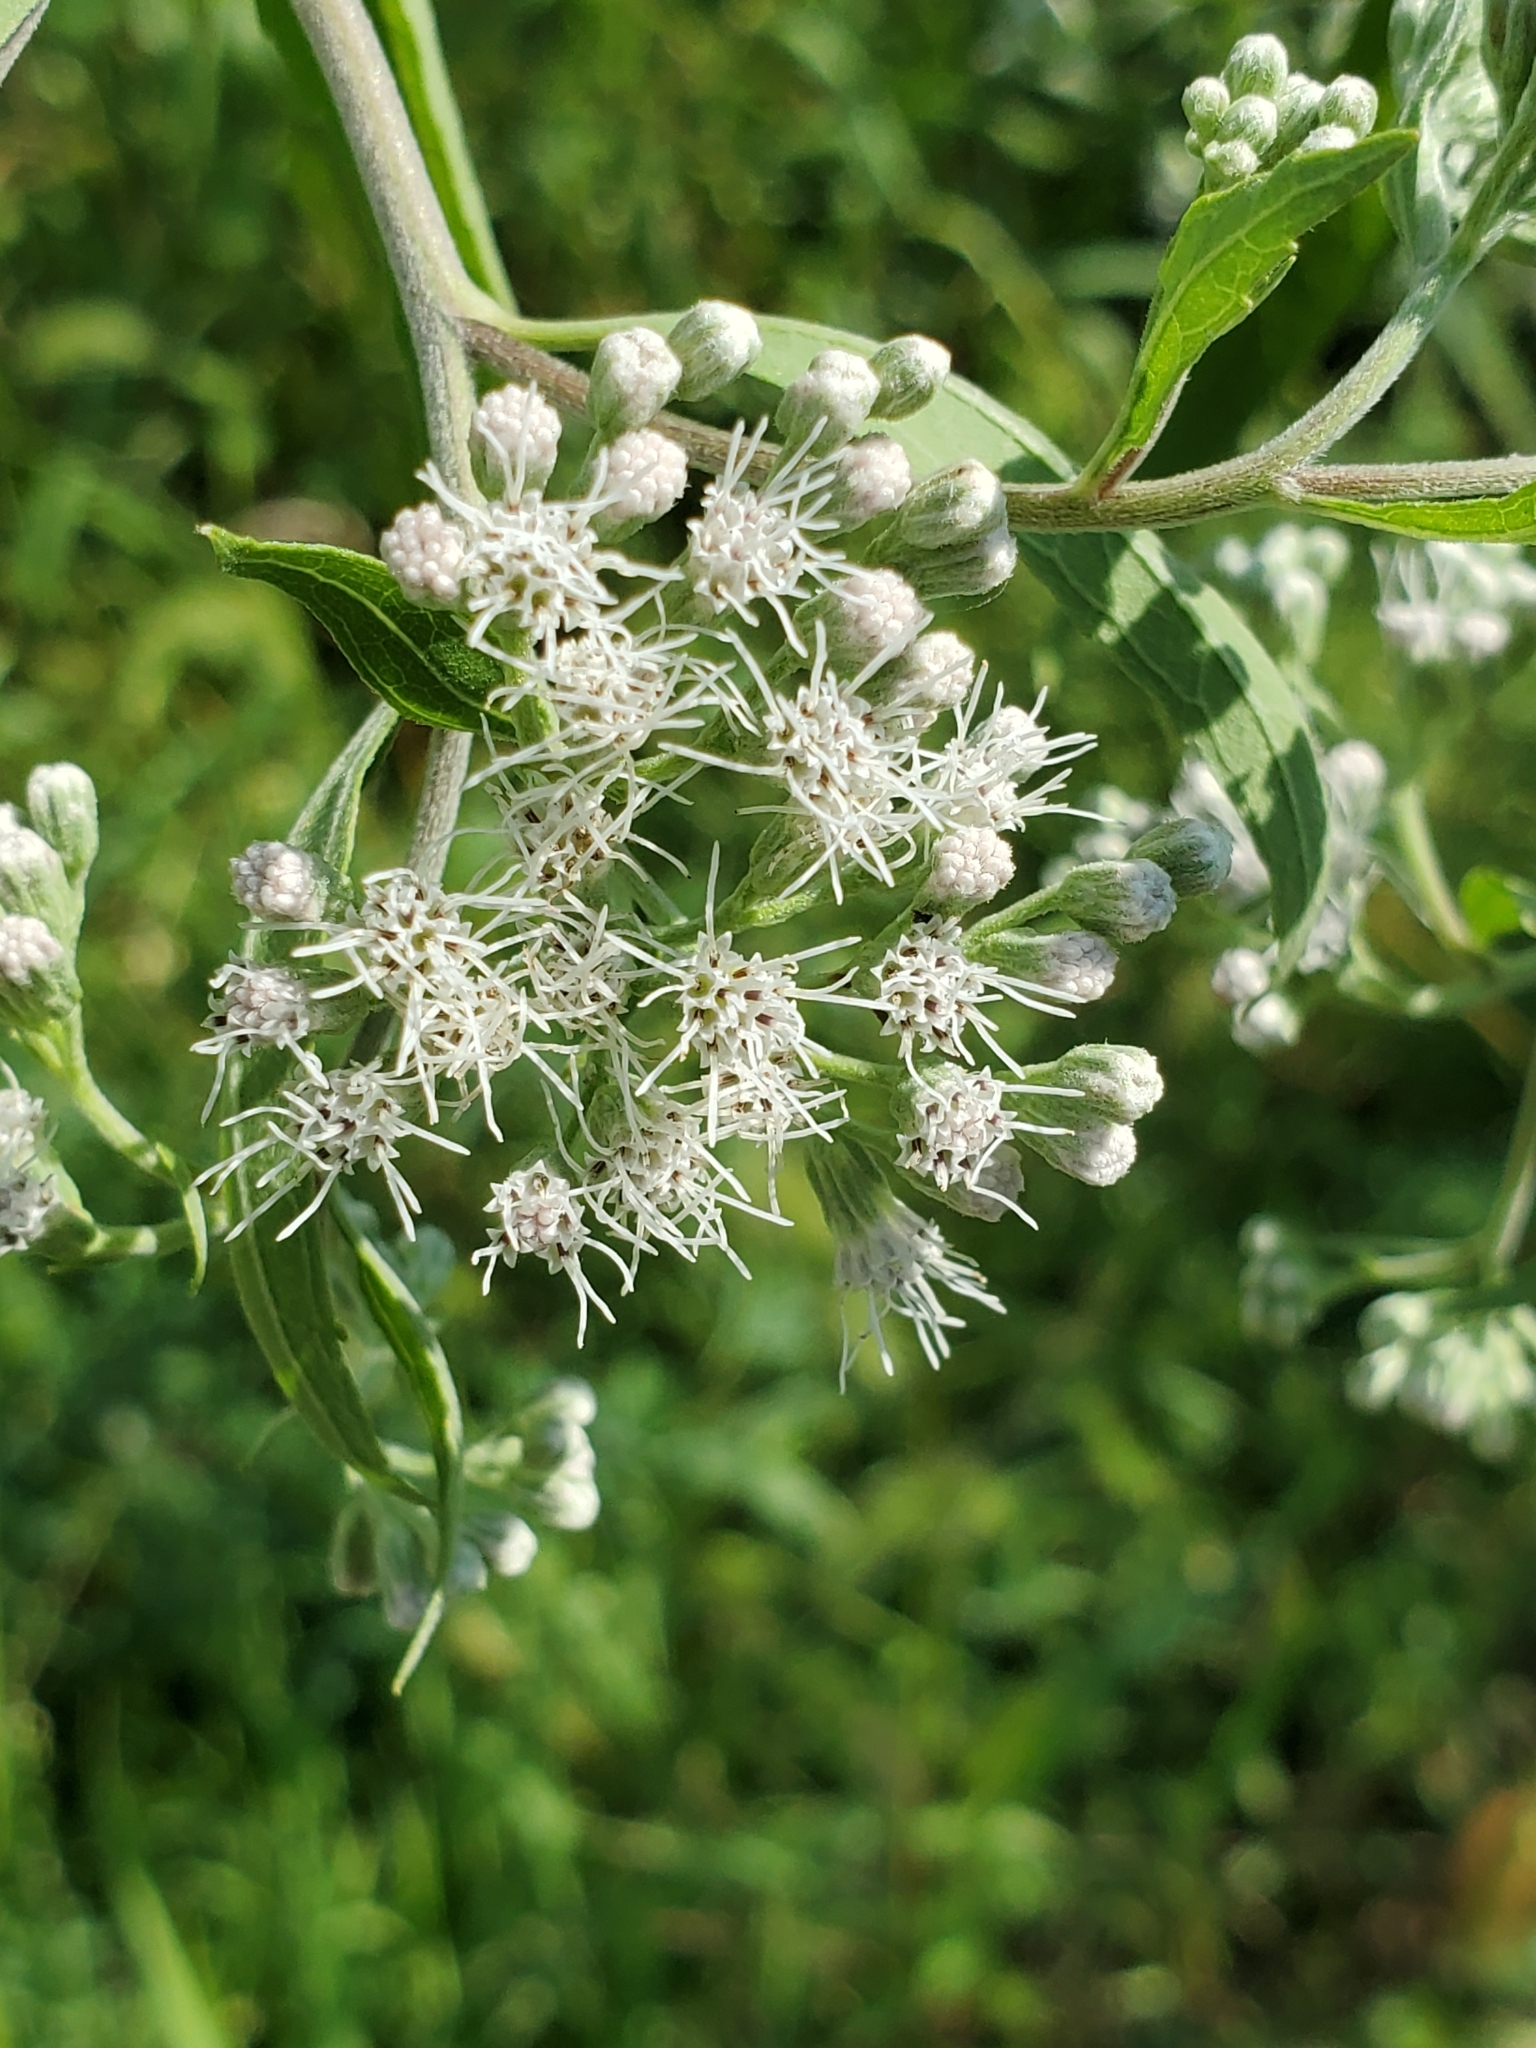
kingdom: Plantae
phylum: Tracheophyta
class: Magnoliopsida
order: Asterales
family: Asteraceae
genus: Eupatorium
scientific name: Eupatorium serotinum
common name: Late boneset
